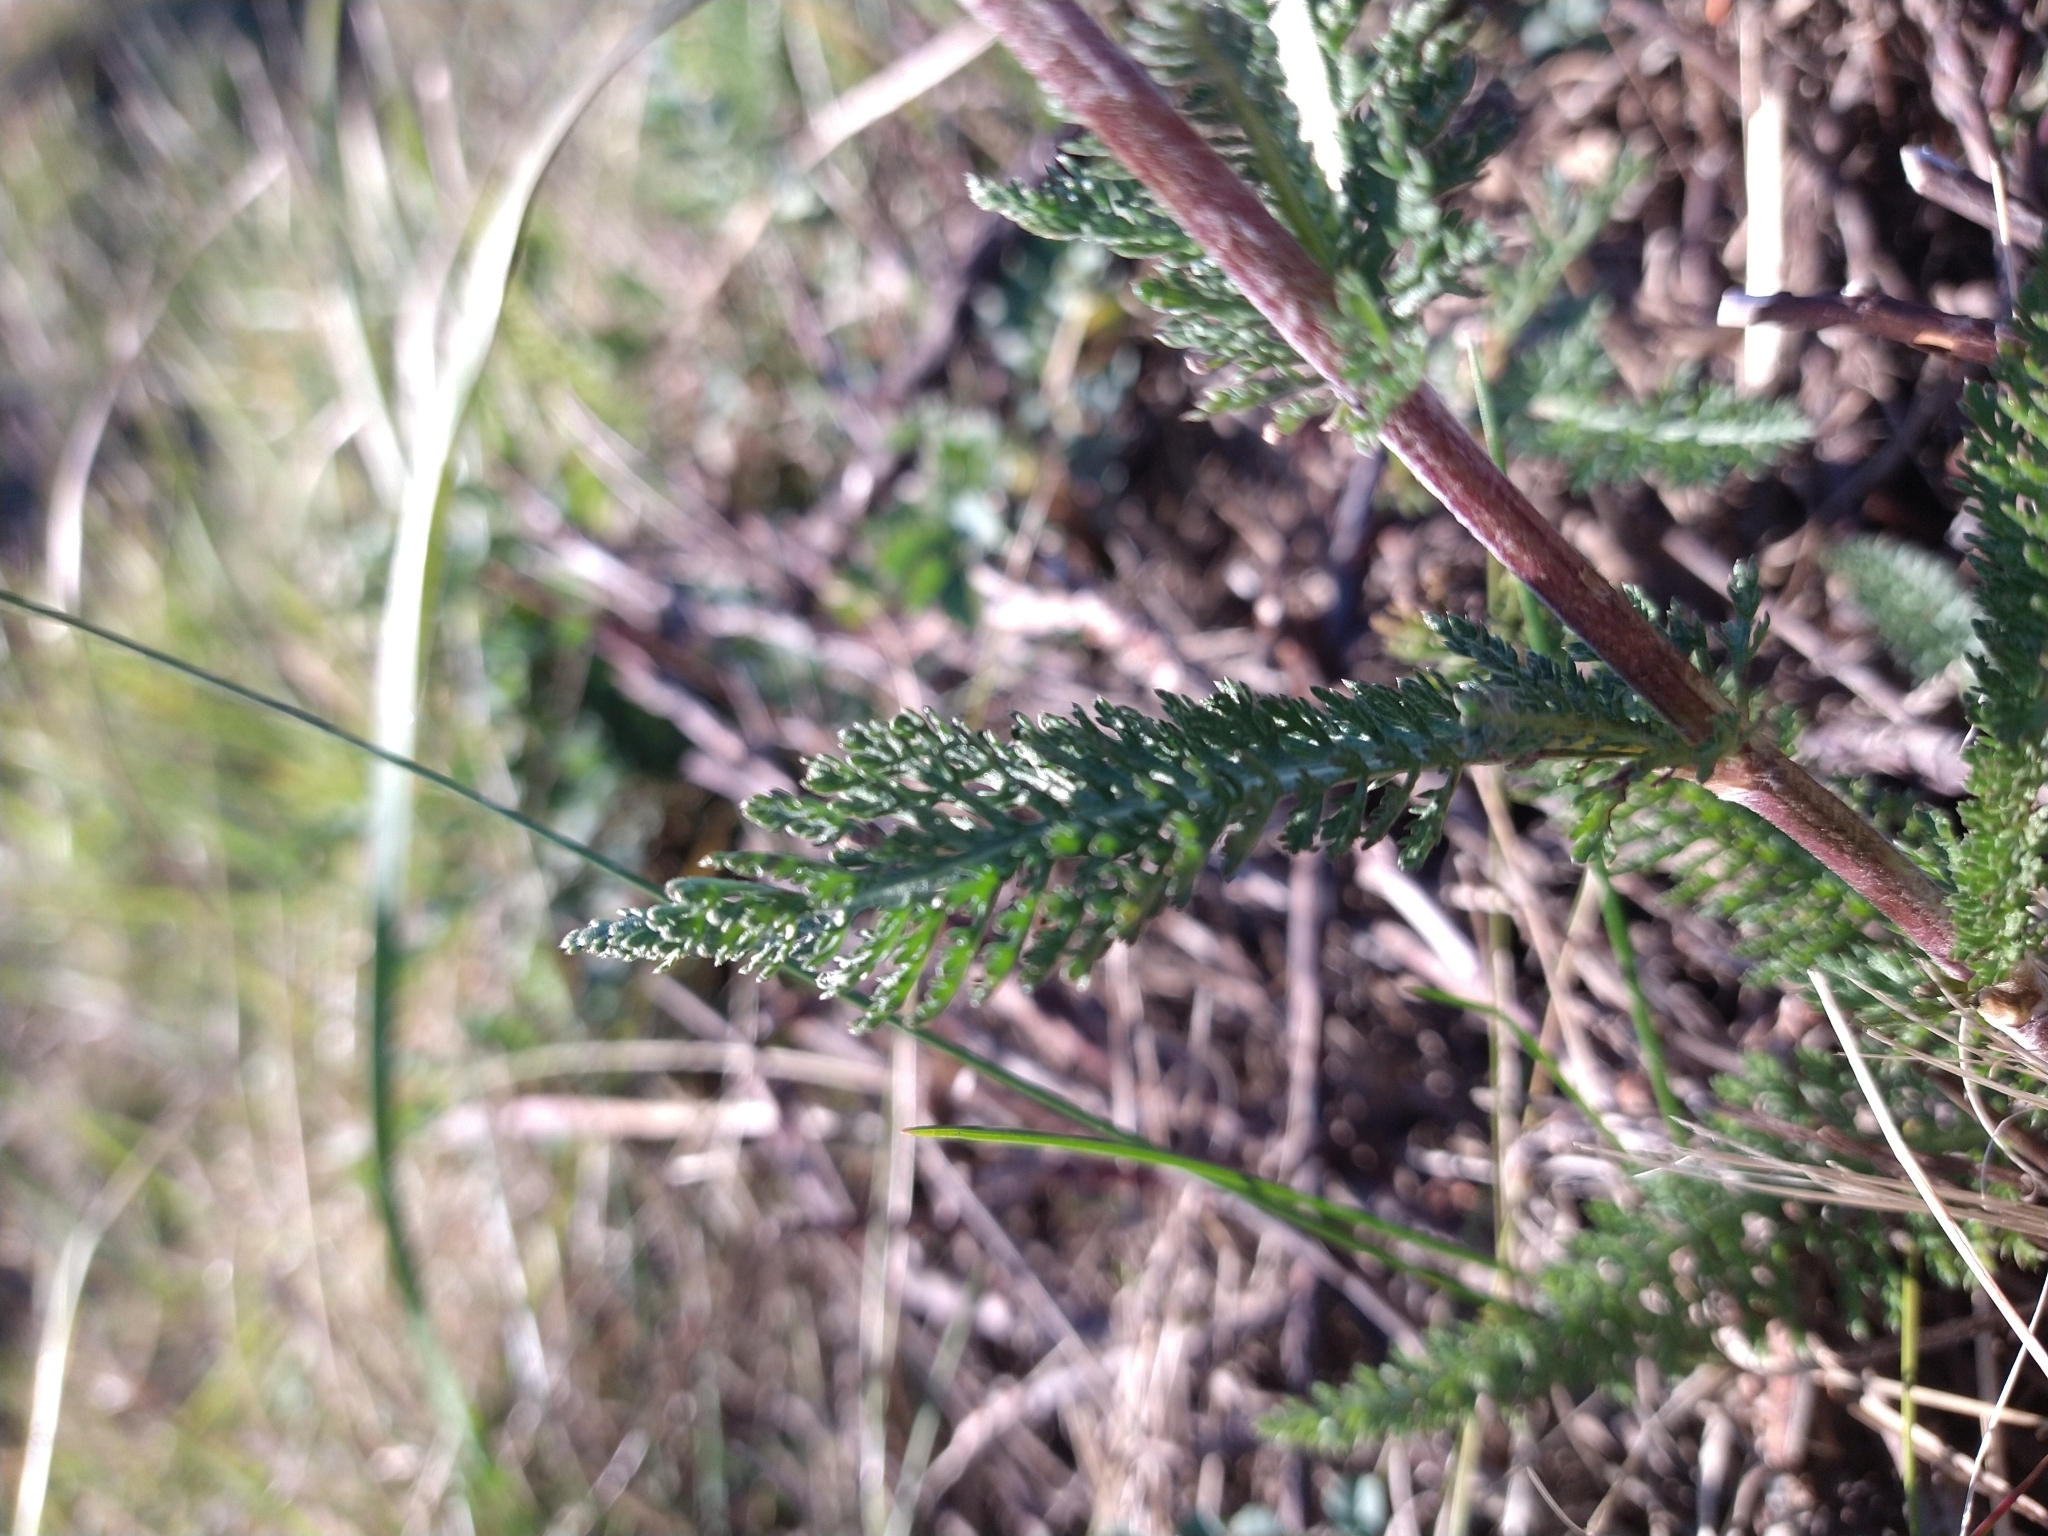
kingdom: Plantae
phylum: Tracheophyta
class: Magnoliopsida
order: Asterales
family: Asteraceae
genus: Achillea
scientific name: Achillea millefolium
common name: Yarrow
